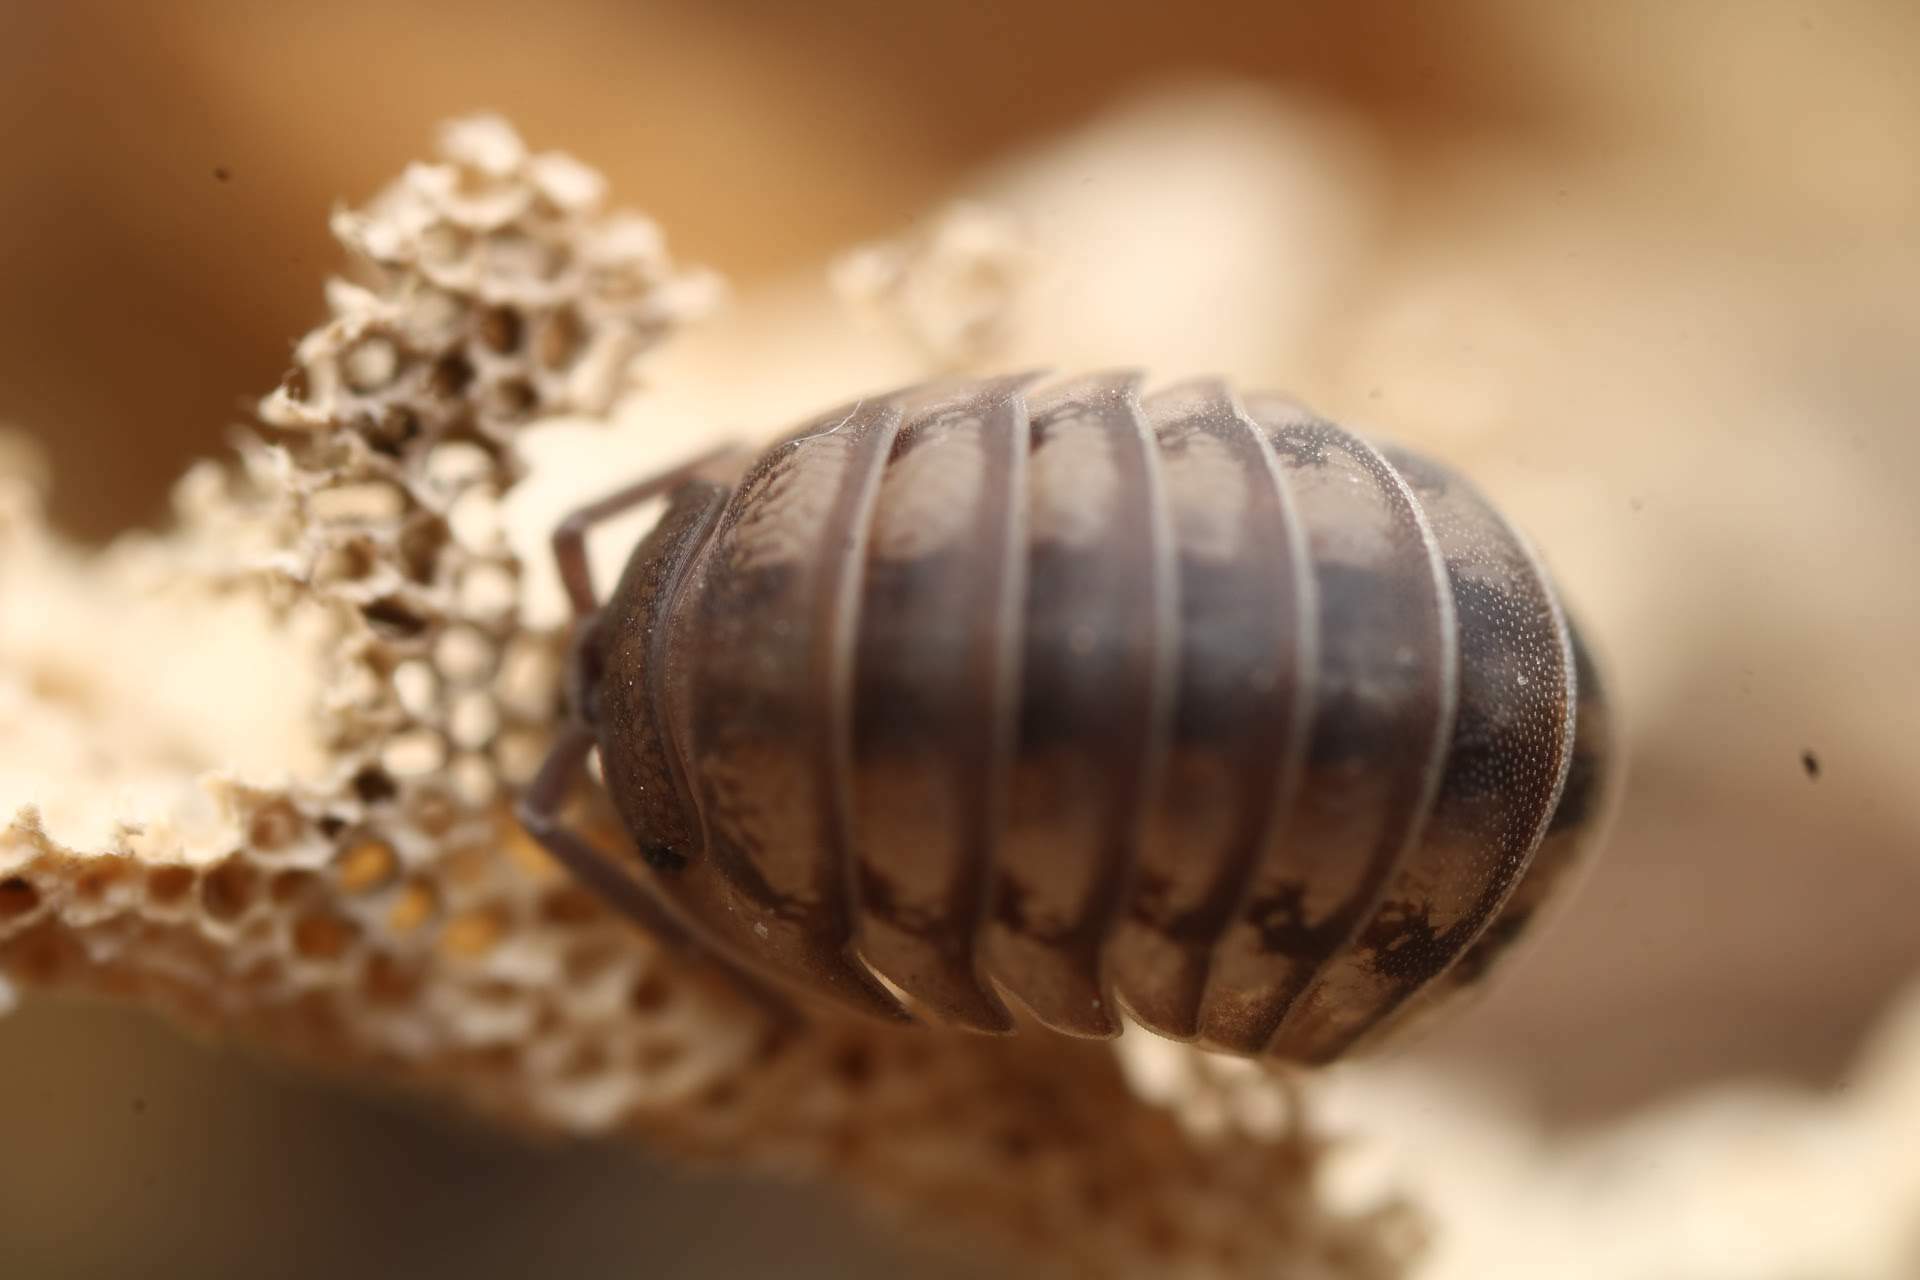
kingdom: Animalia
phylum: Arthropoda
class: Malacostraca
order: Isopoda
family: Armadillidiidae
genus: Armadillidium
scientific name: Armadillidium nasatum
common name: Isopod
